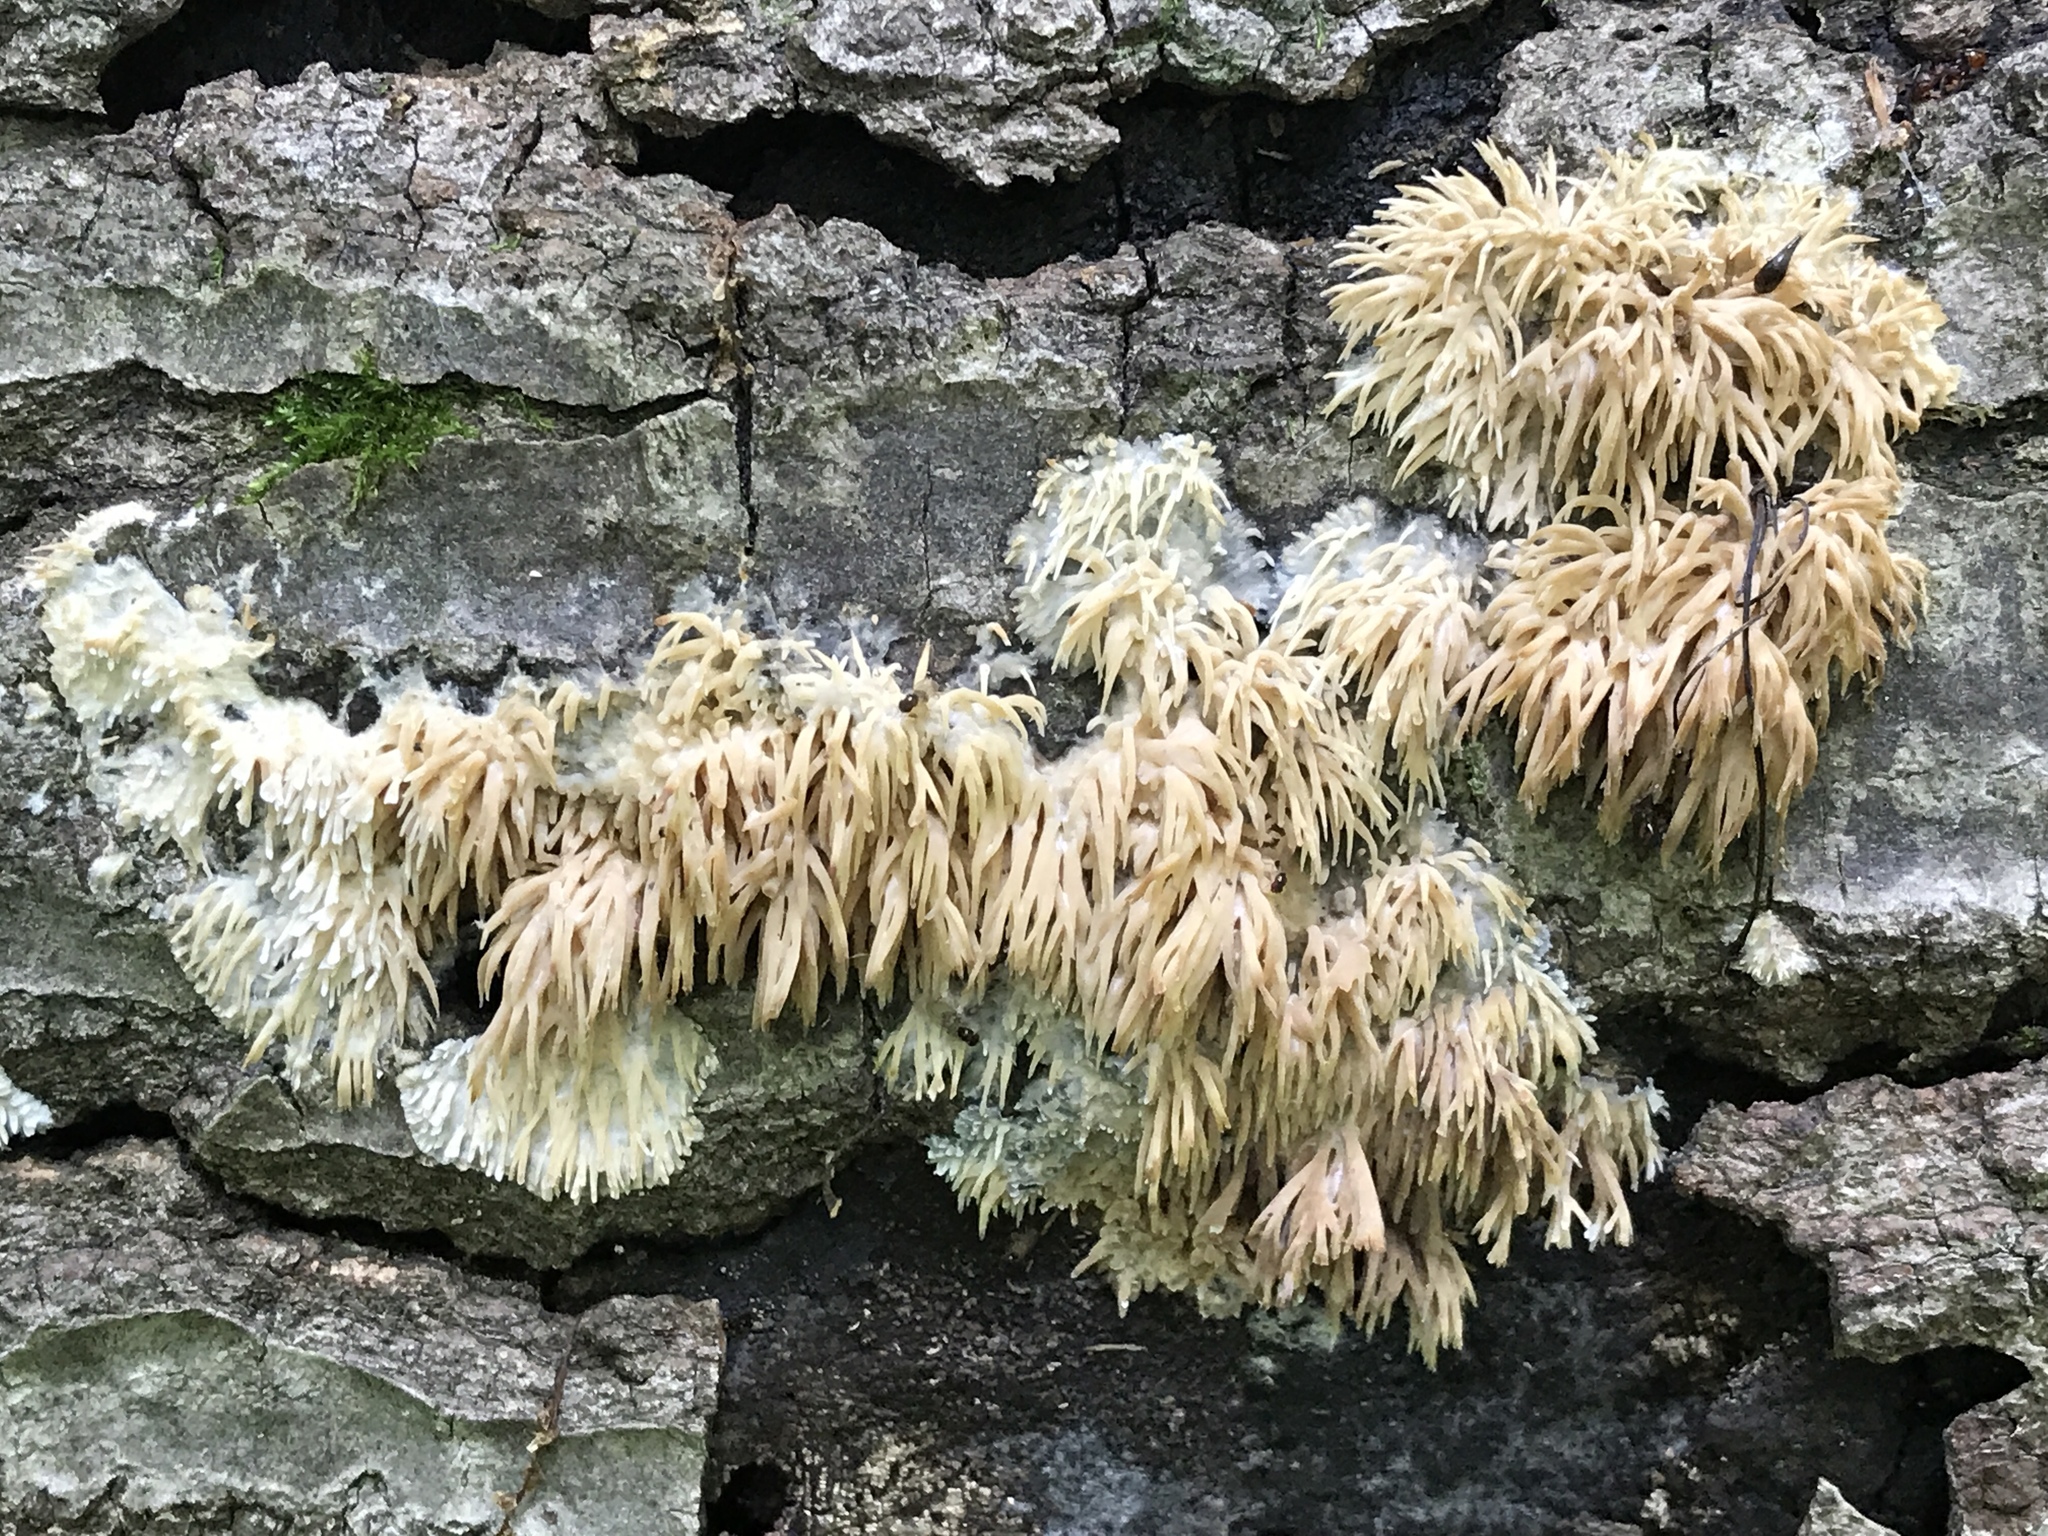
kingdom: Fungi
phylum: Basidiomycota
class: Agaricomycetes
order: Agaricales
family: Radulomycetaceae
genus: Radulomyces
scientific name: Radulomyces copelandii
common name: Asian beauty
